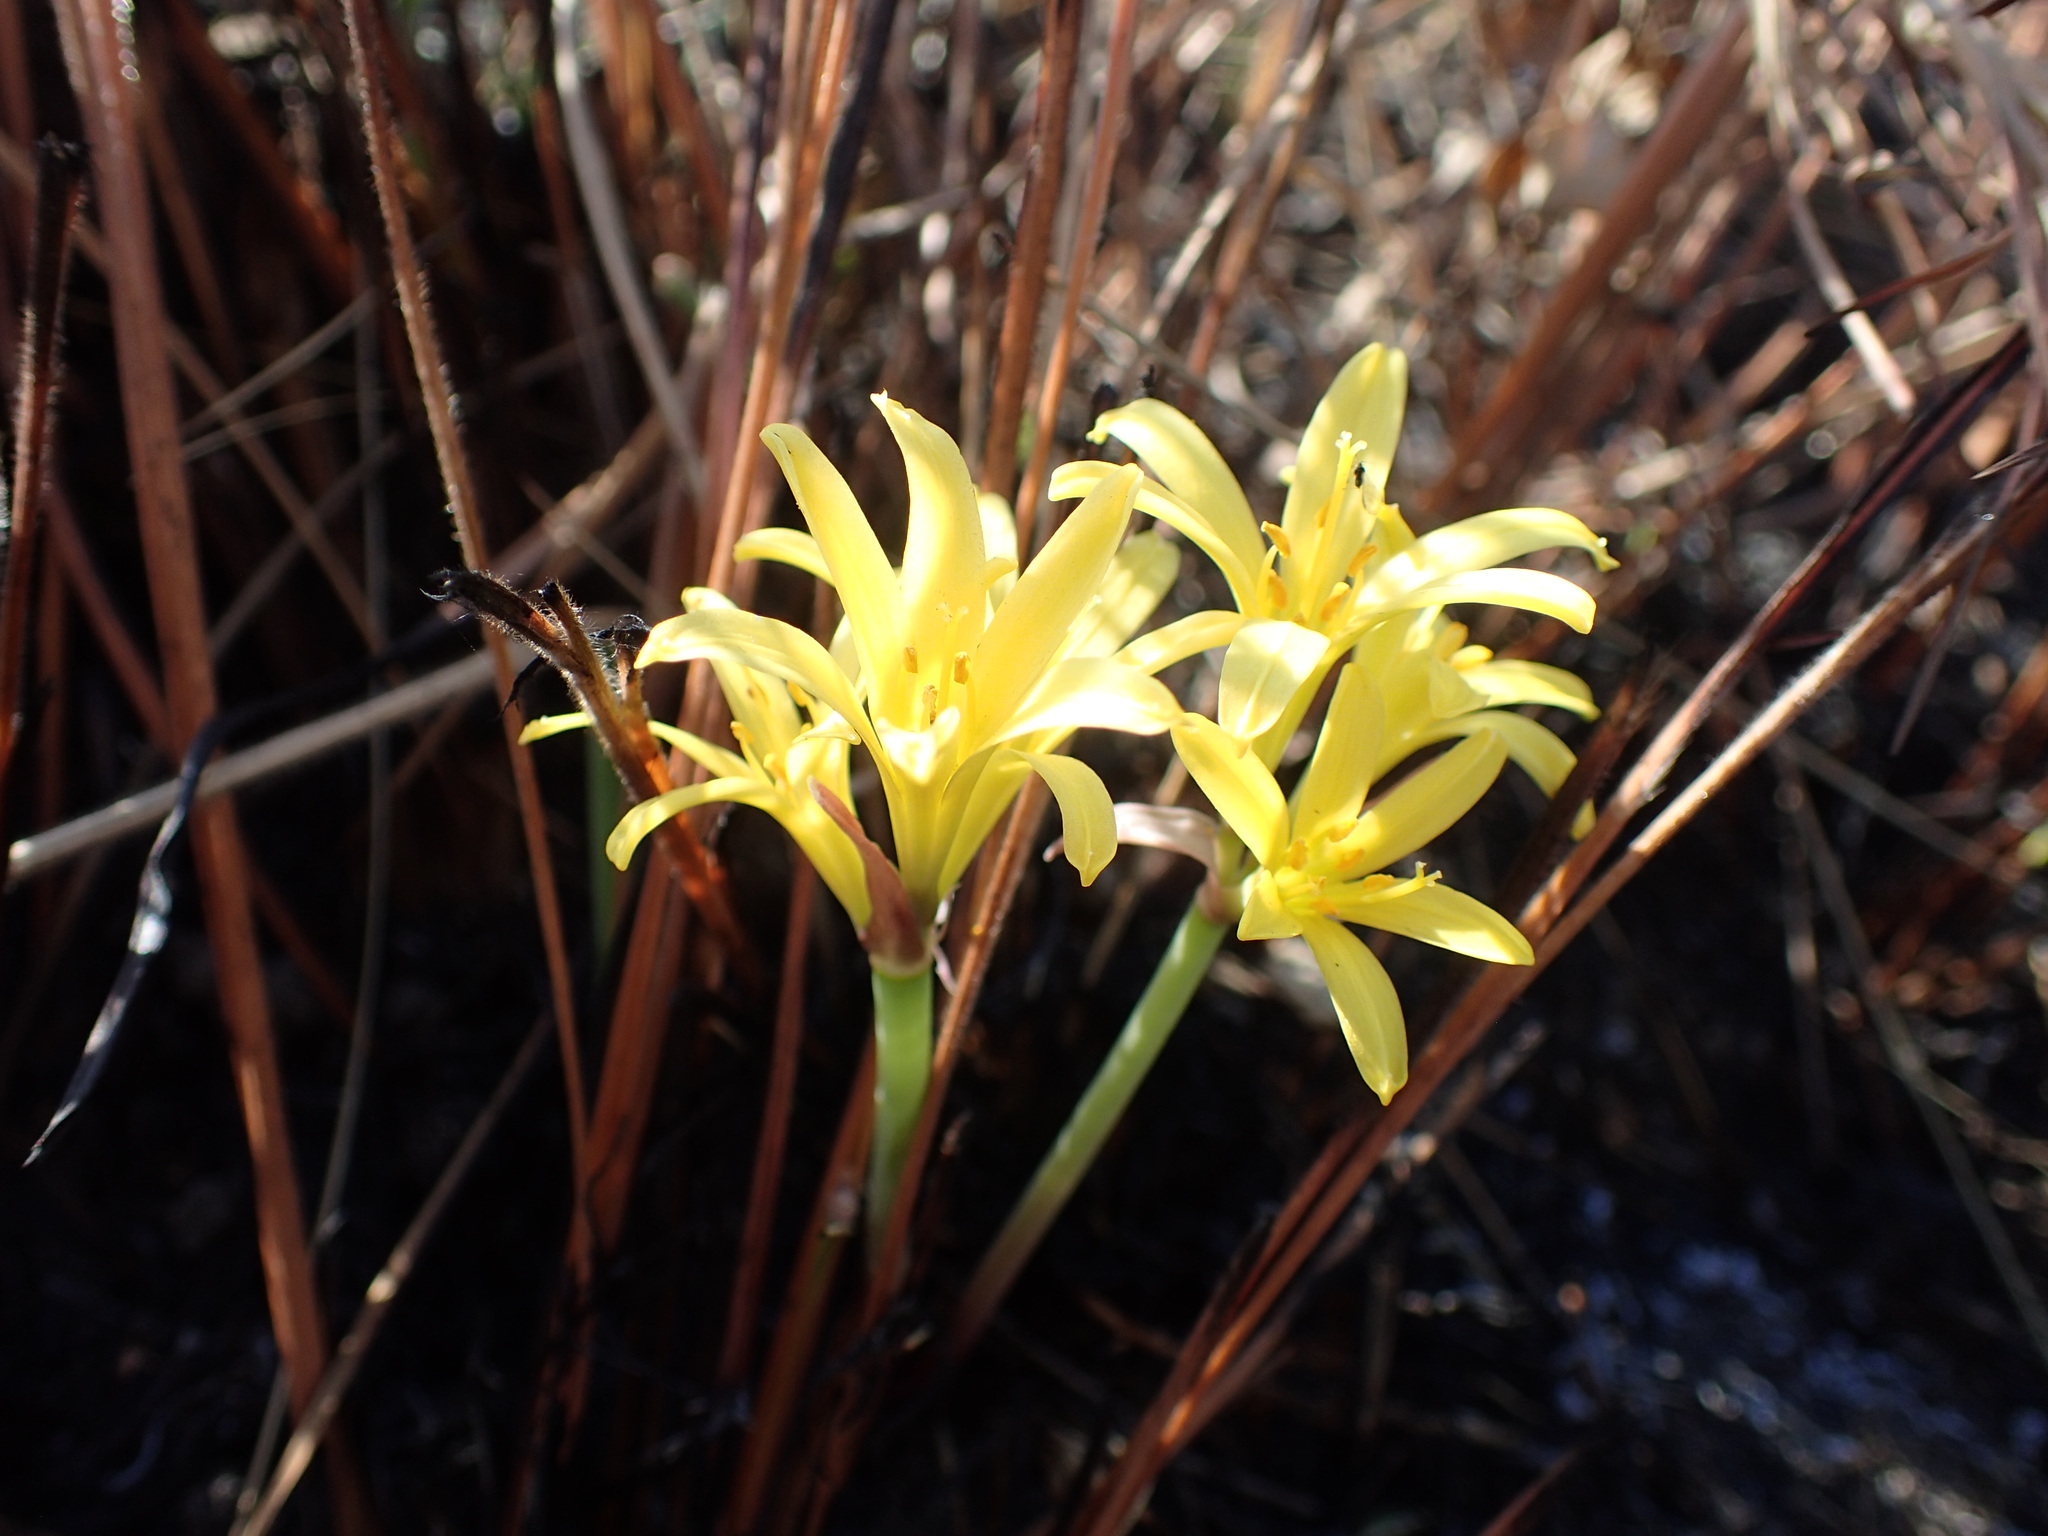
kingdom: Plantae
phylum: Tracheophyta
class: Liliopsida
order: Asparagales
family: Amaryllidaceae
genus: Cyrtanthus
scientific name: Cyrtanthus breviflorus
